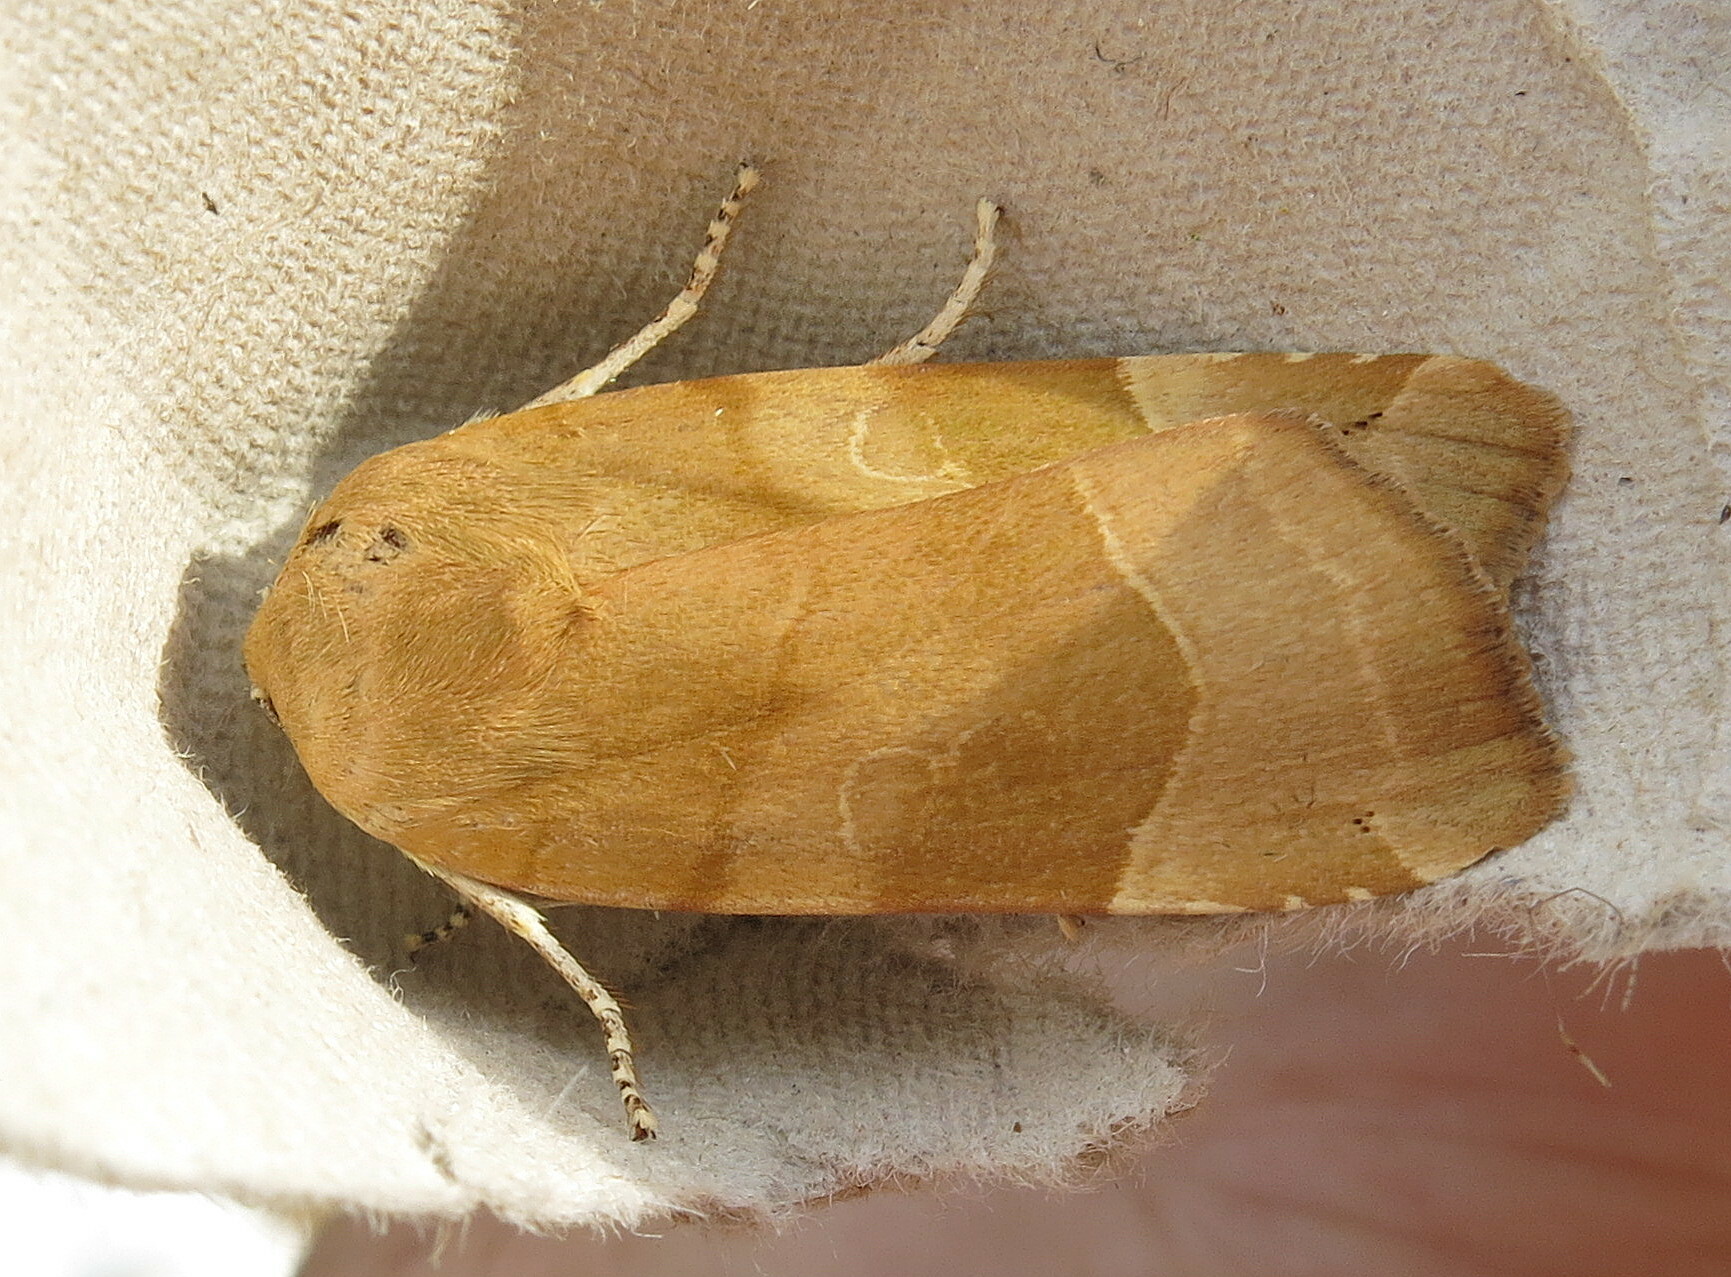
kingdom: Animalia
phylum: Arthropoda
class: Insecta
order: Lepidoptera
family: Noctuidae
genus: Noctua
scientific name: Noctua fimbriata
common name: Broad-bordered yellow underwing
